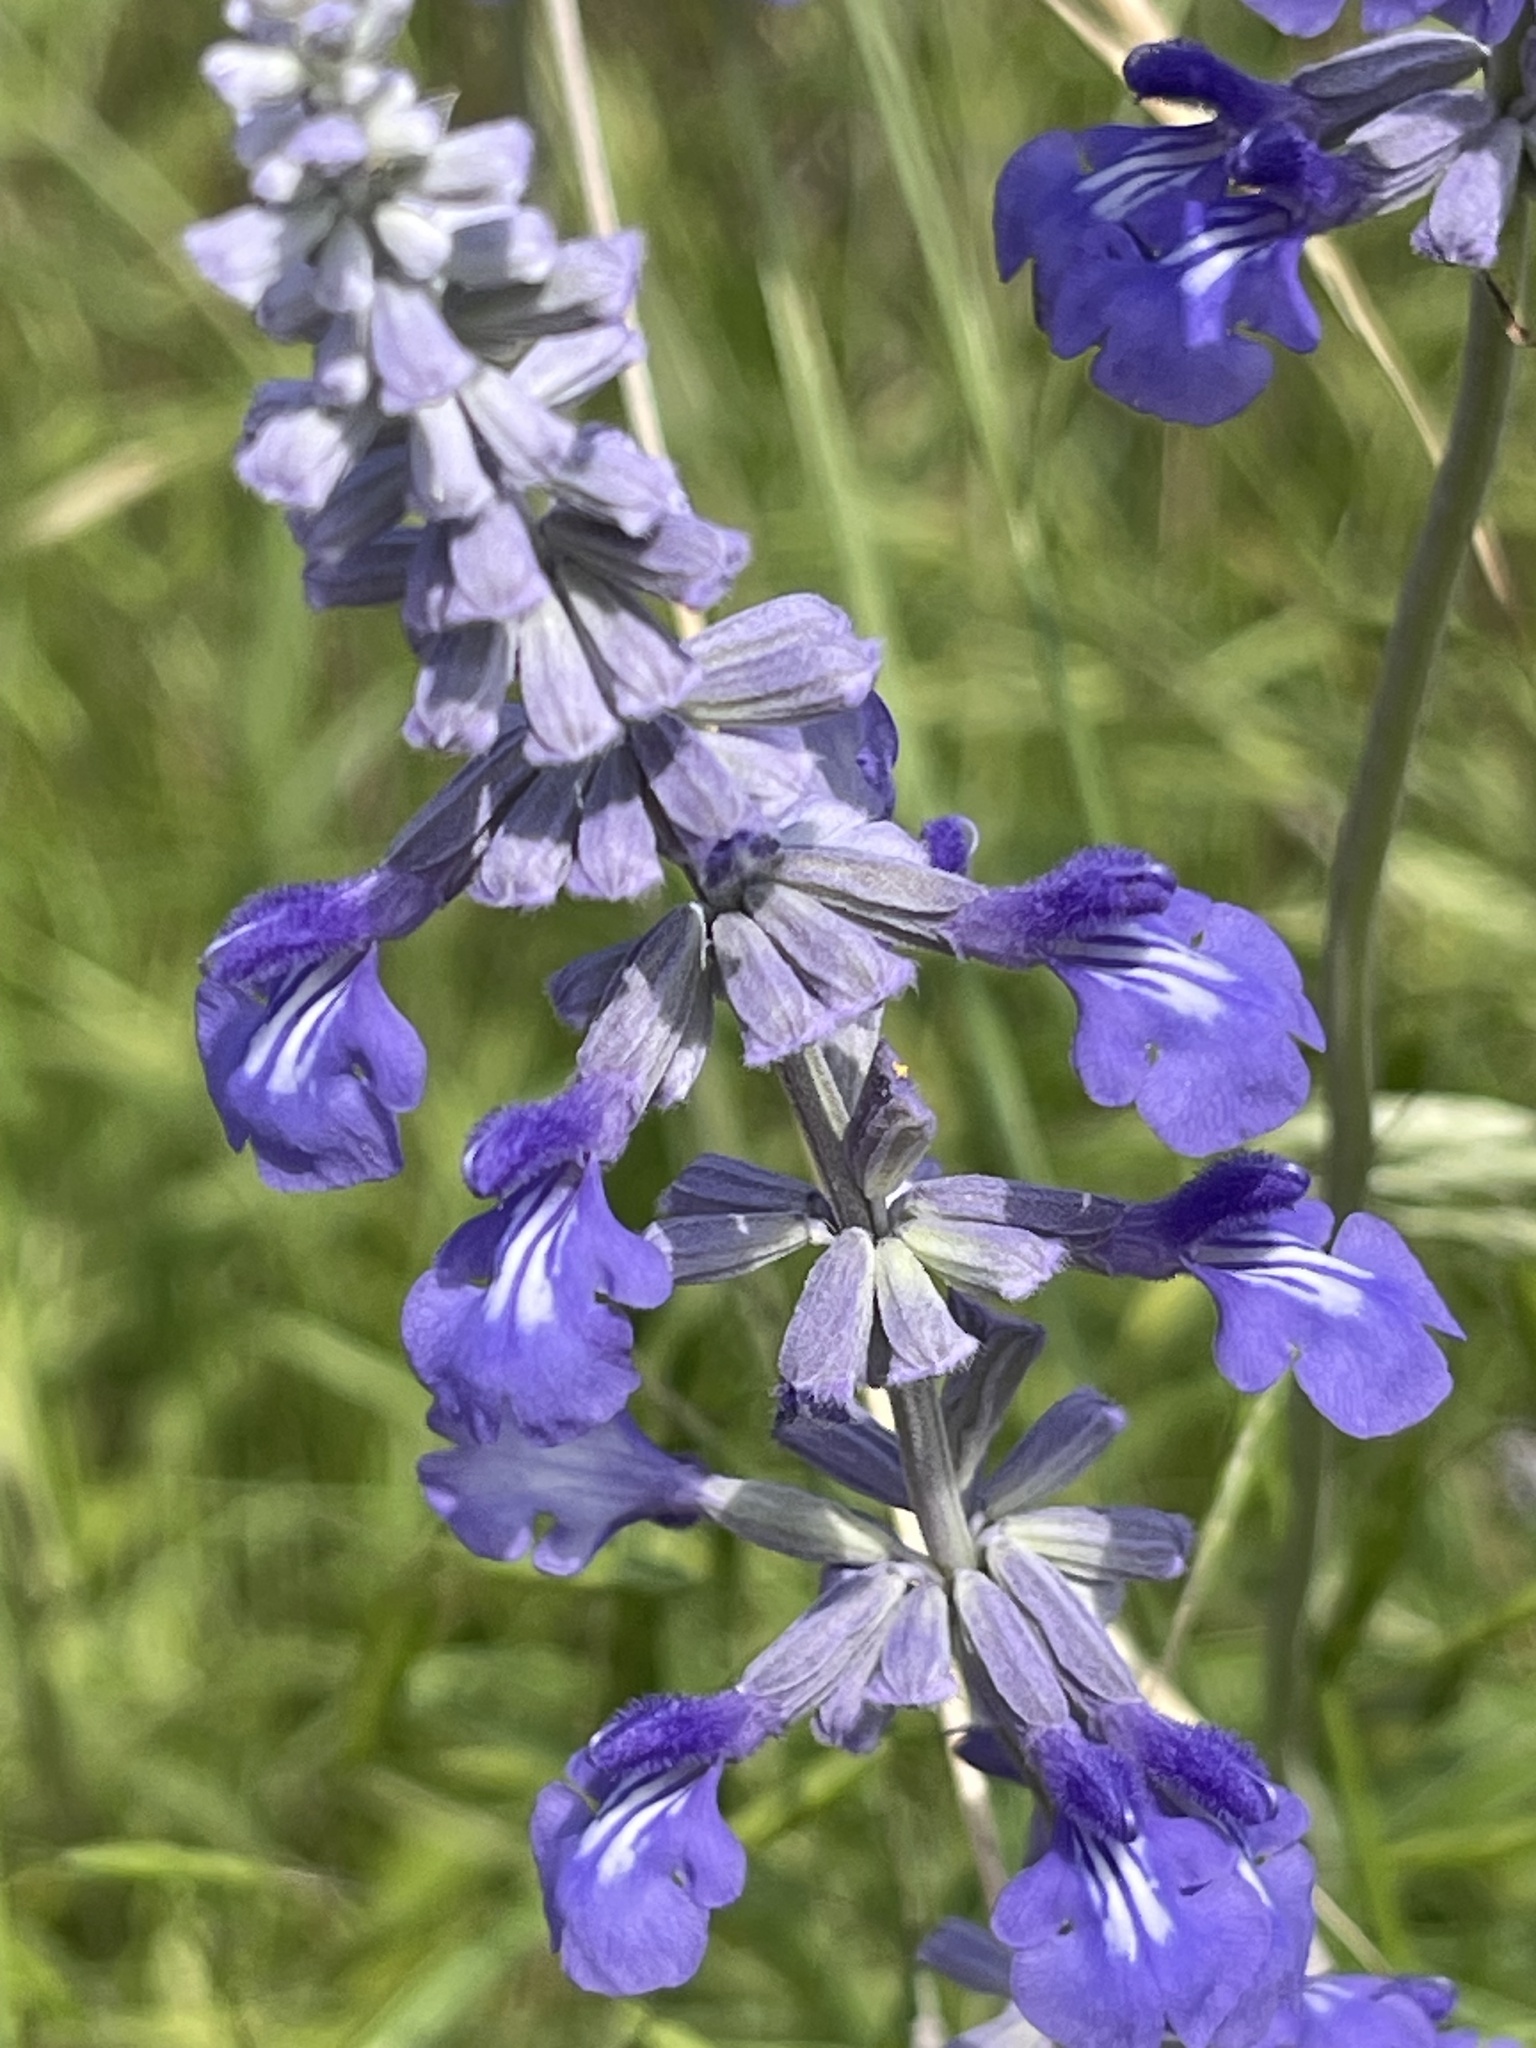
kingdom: Plantae
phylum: Tracheophyta
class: Magnoliopsida
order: Lamiales
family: Lamiaceae
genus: Salvia
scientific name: Salvia farinacea
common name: Mealy sage
